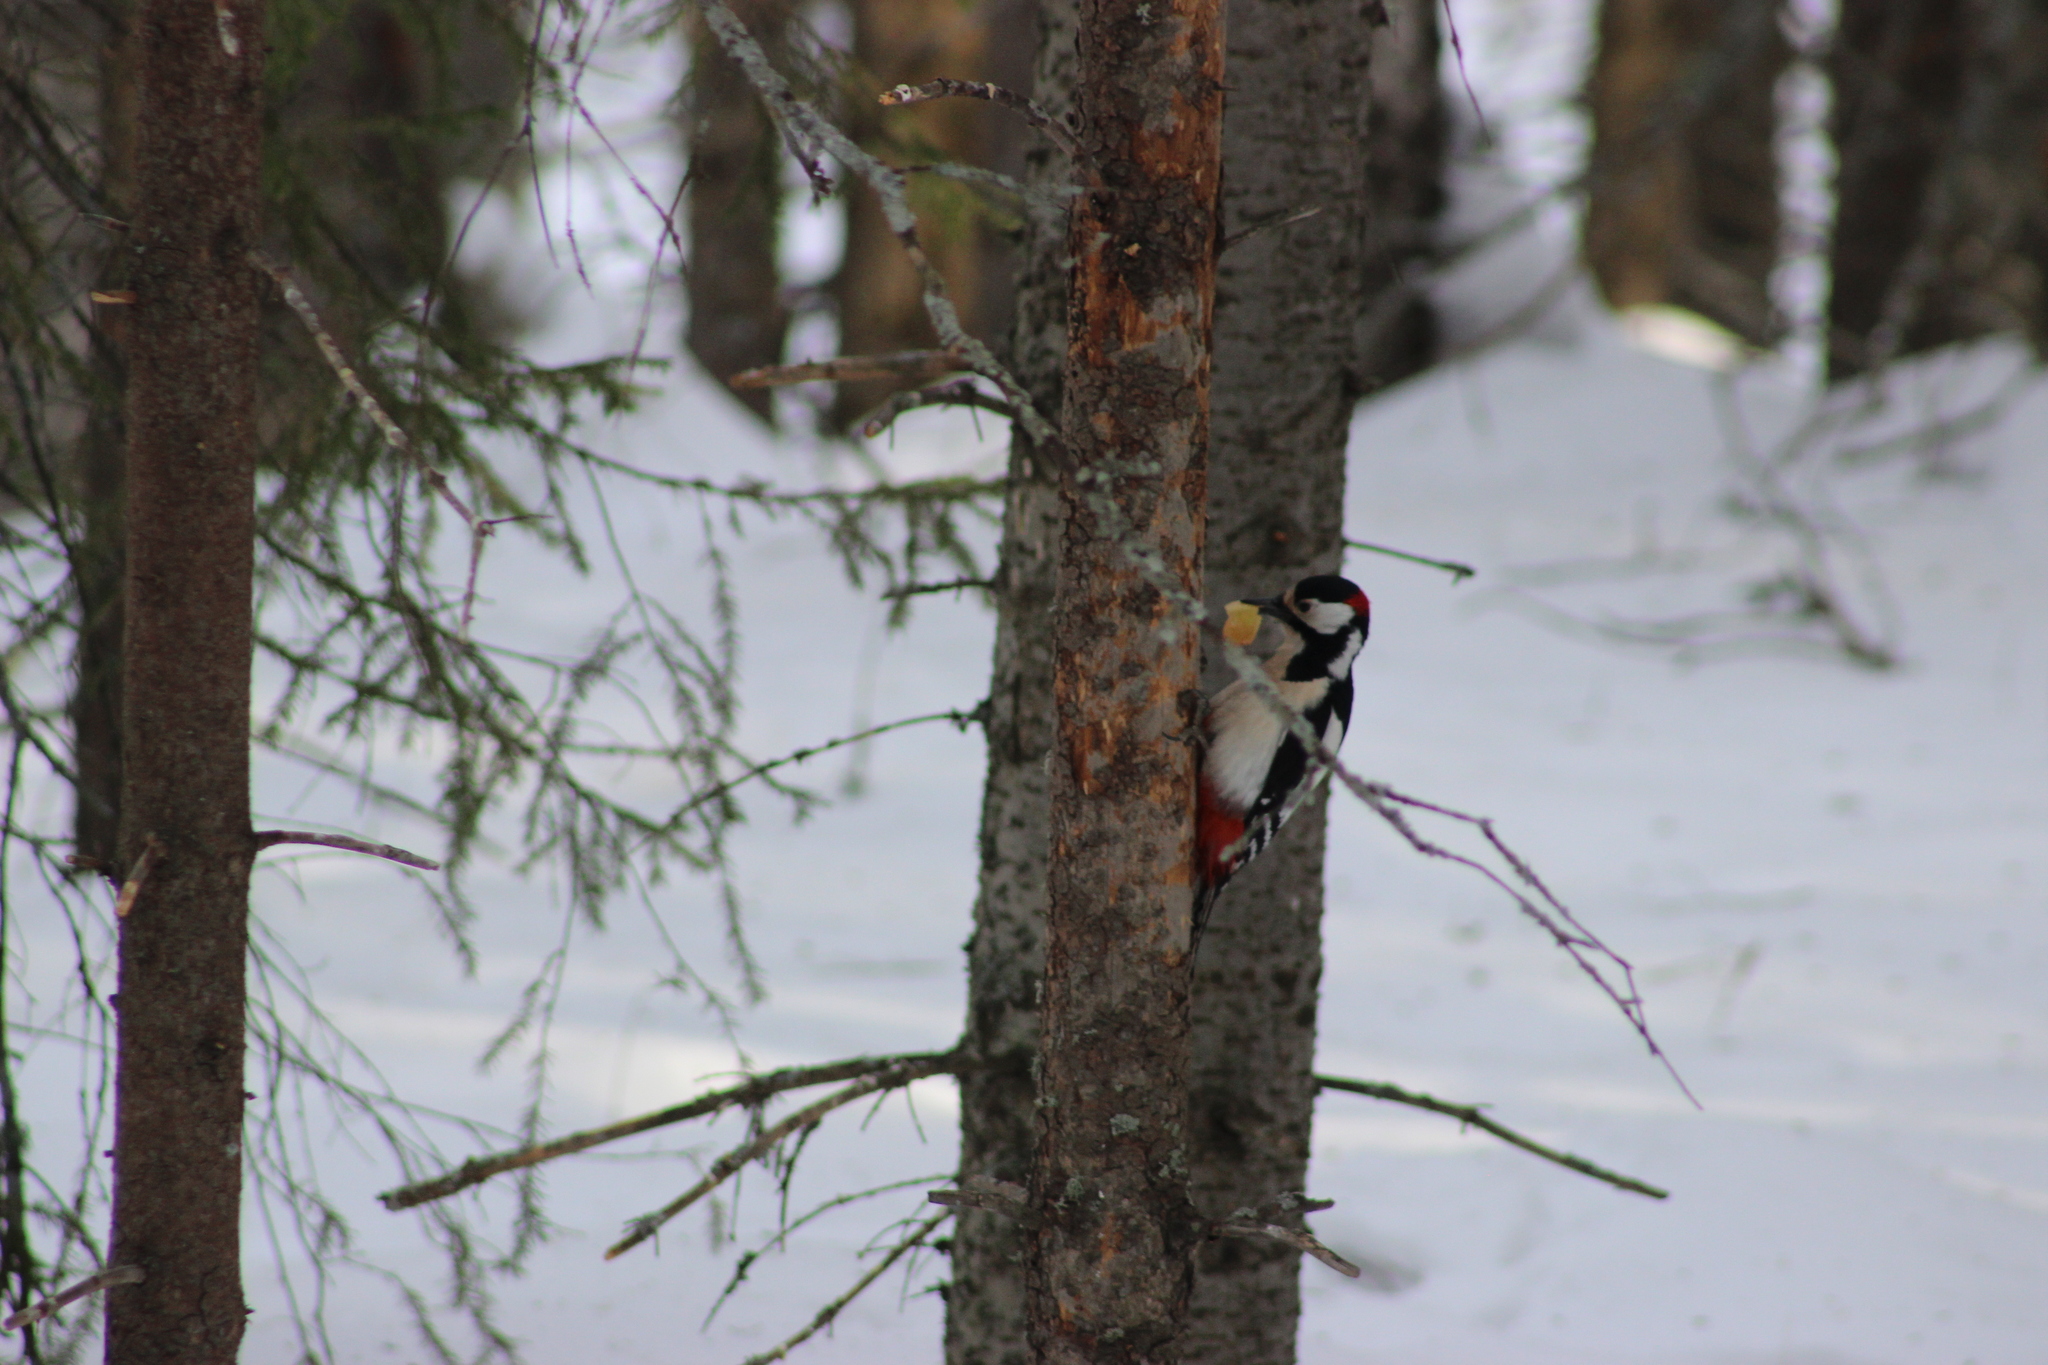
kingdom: Animalia
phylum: Chordata
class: Aves
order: Piciformes
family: Picidae
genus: Dendrocopos
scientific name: Dendrocopos major
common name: Great spotted woodpecker
